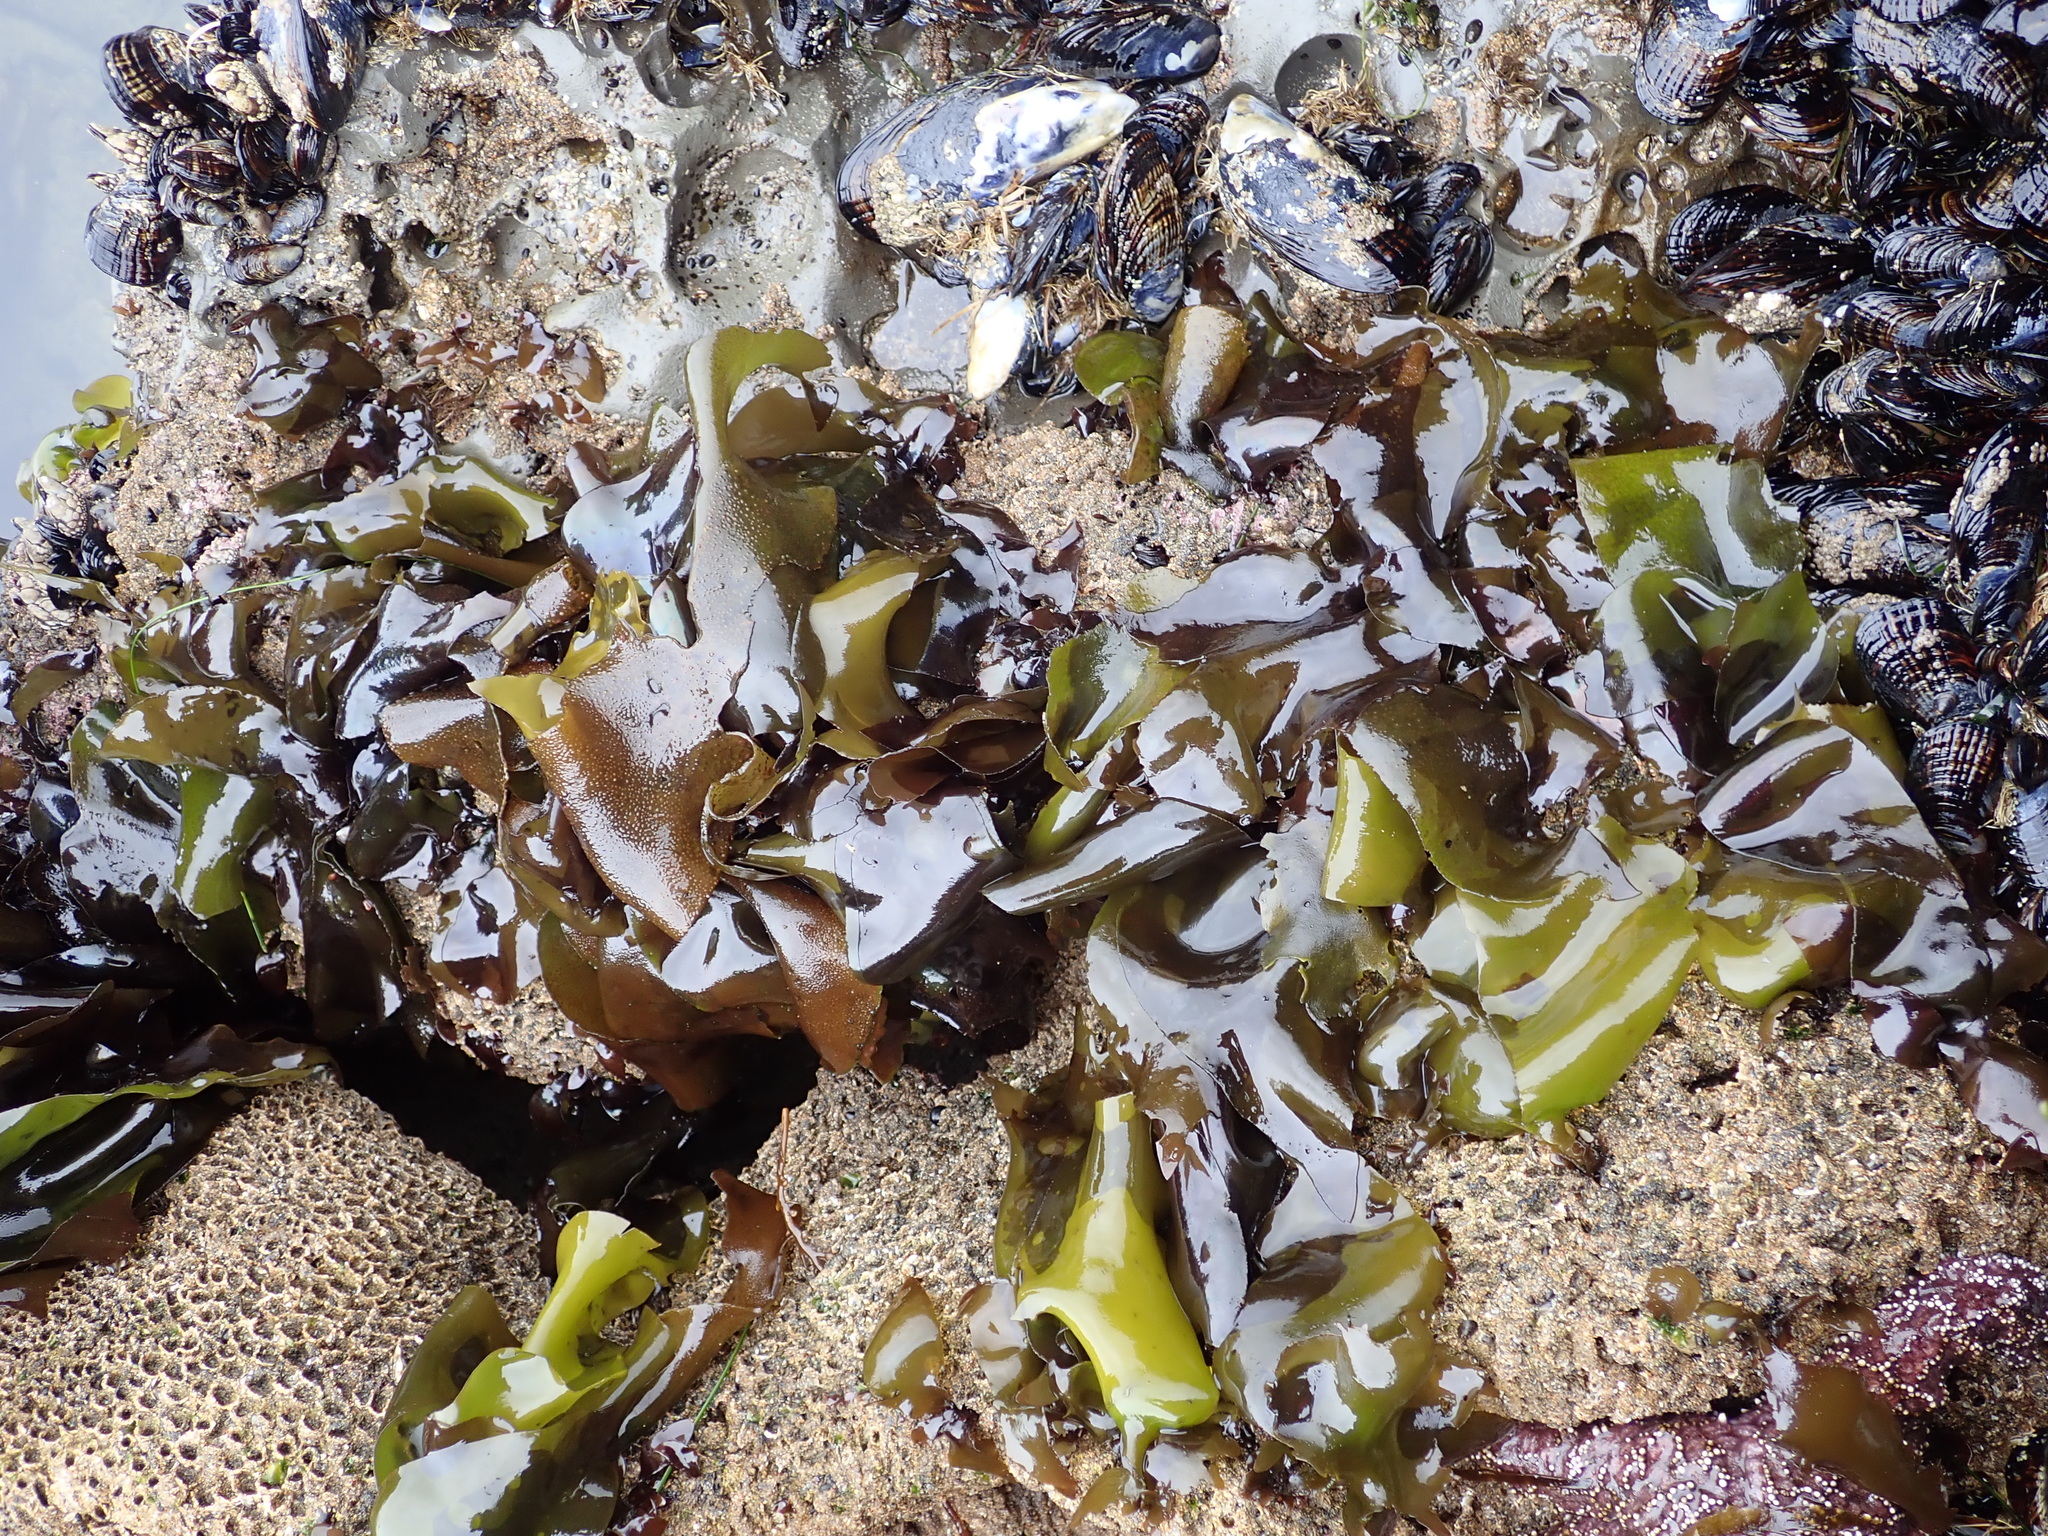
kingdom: Plantae
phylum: Rhodophyta
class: Florideophyceae
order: Gigartinales
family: Gigartinaceae
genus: Mazzaella
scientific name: Mazzaella flaccida
